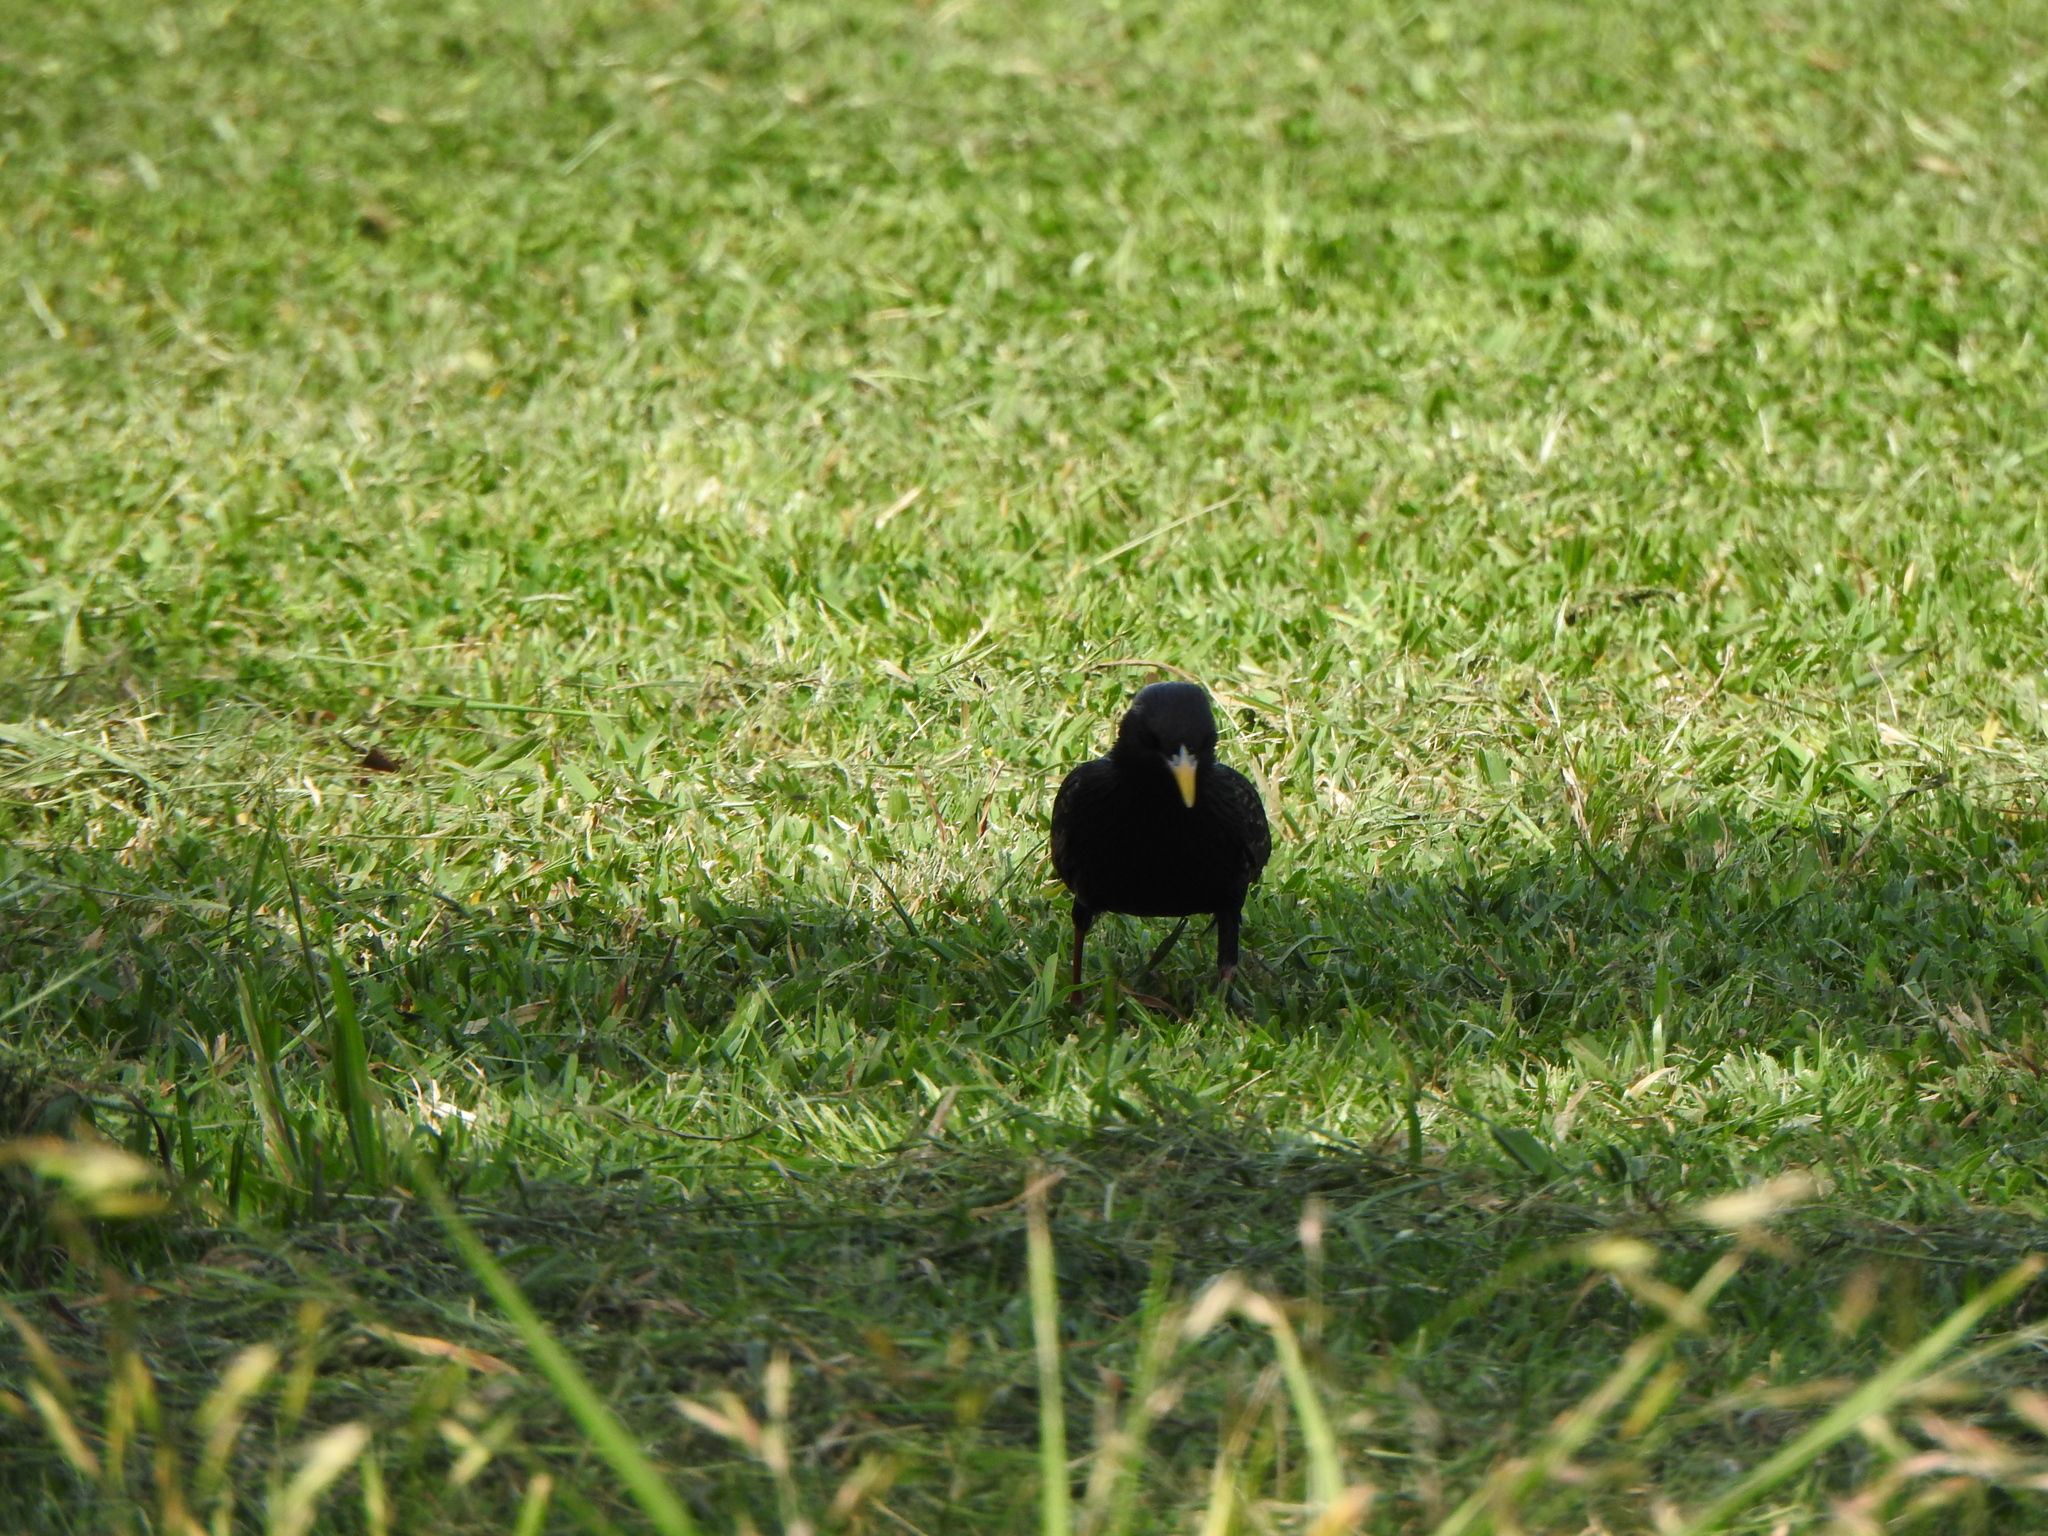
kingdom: Animalia
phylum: Chordata
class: Aves
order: Passeriformes
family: Sturnidae
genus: Sturnus
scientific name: Sturnus vulgaris
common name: Common starling
